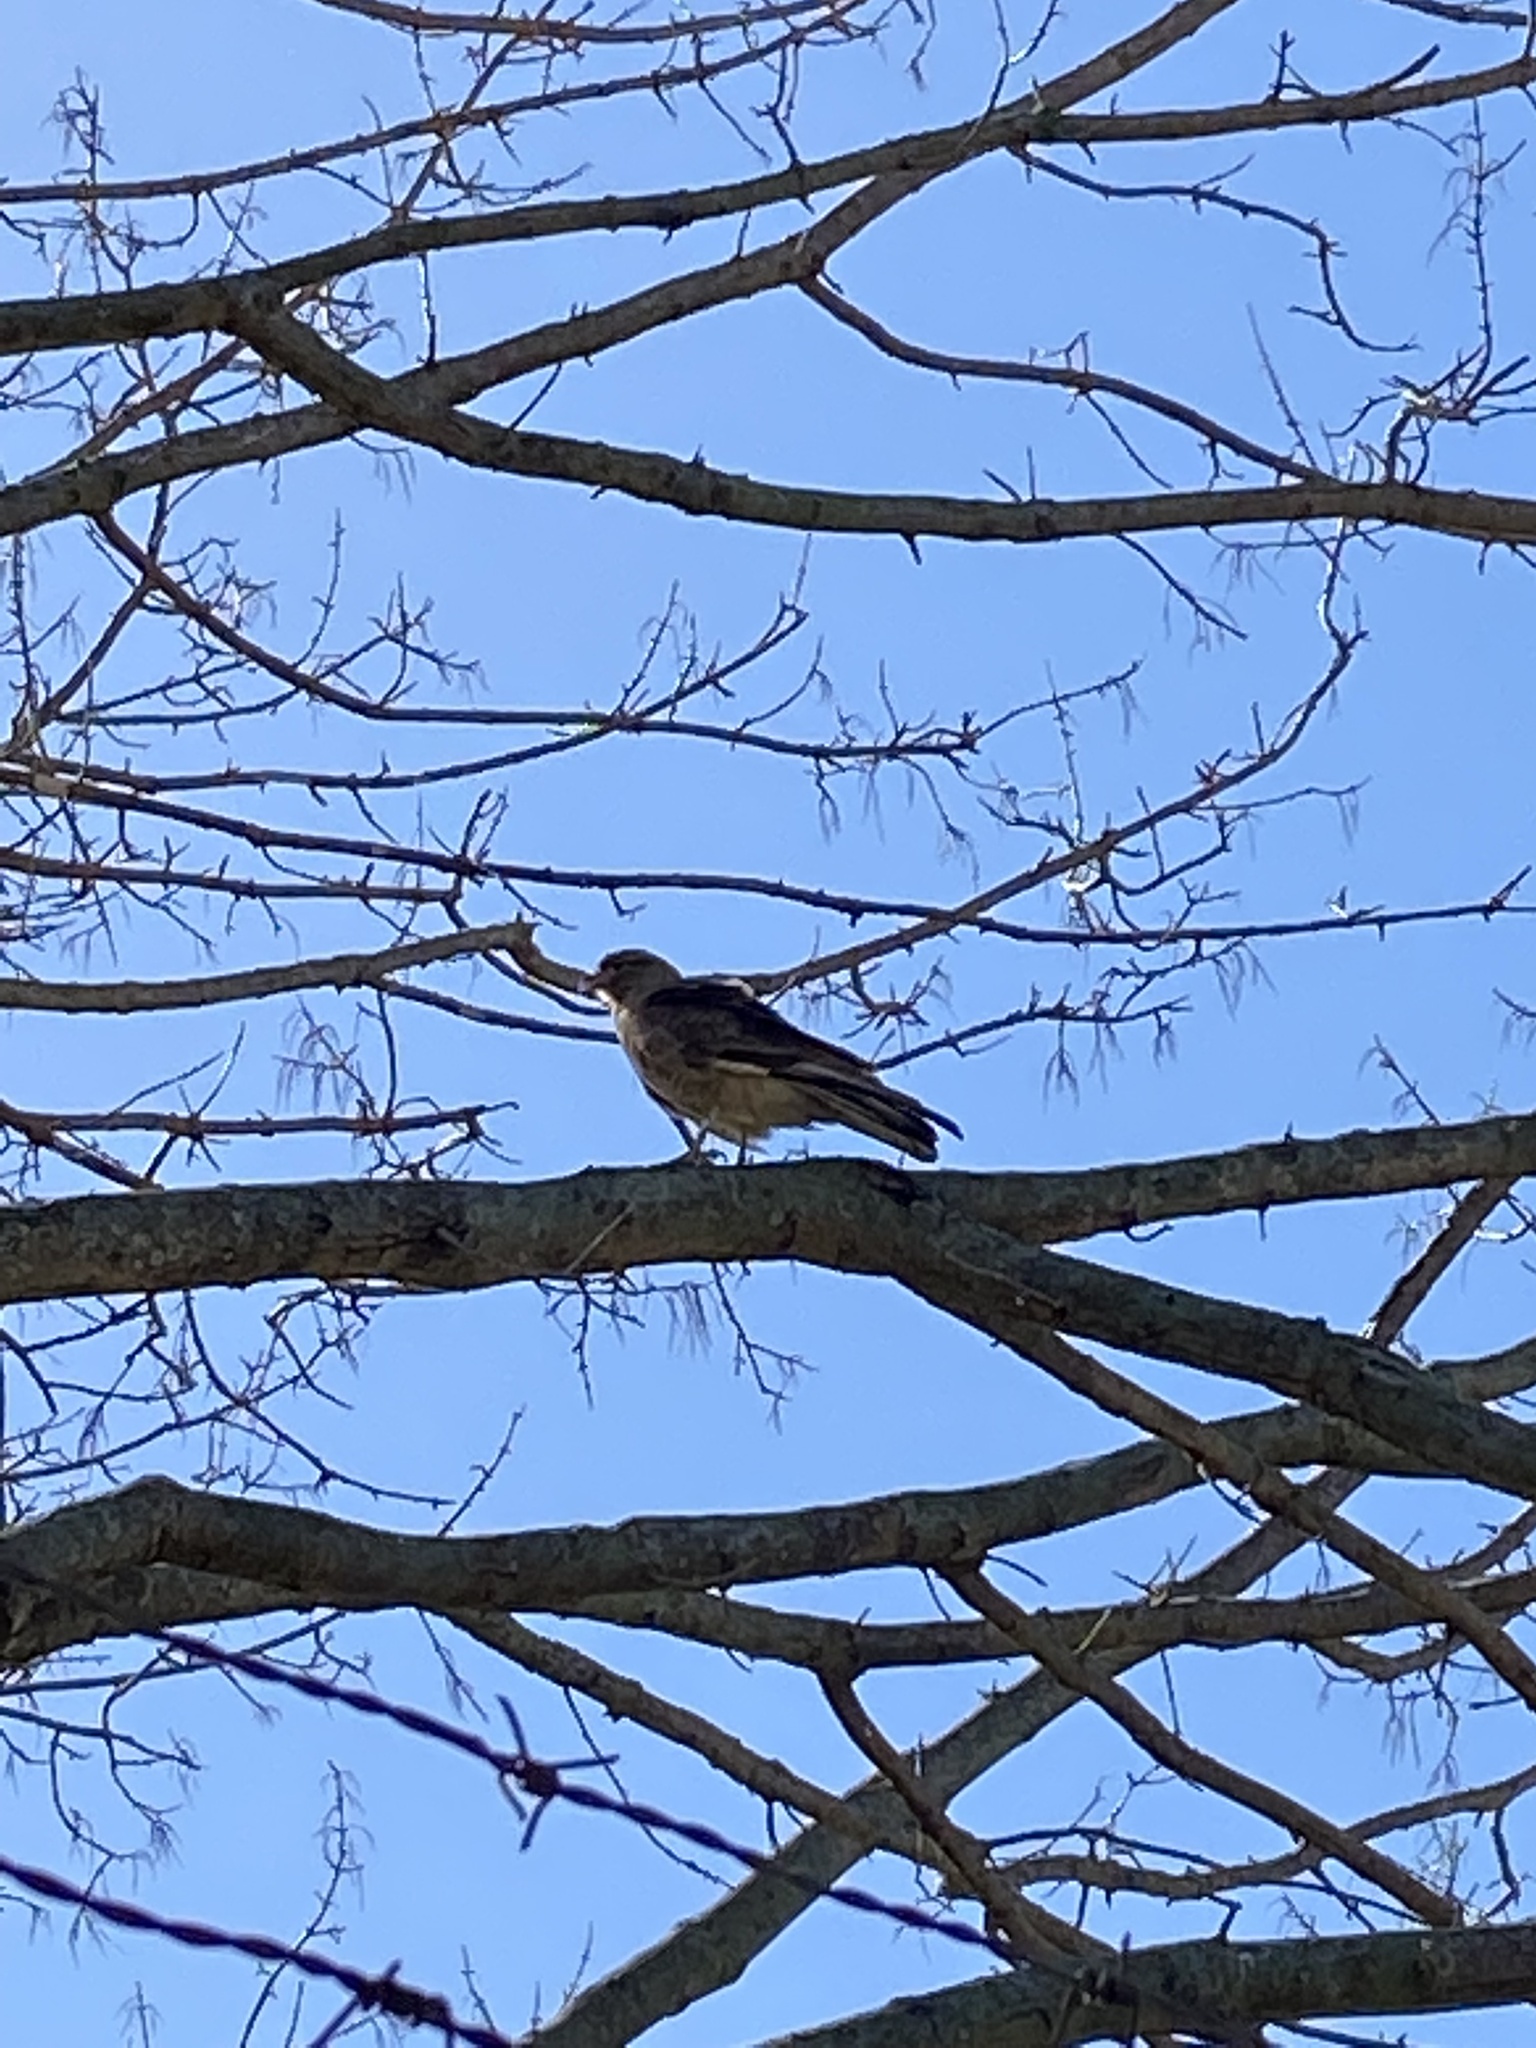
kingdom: Animalia
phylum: Chordata
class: Aves
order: Falconiformes
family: Falconidae
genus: Daptrius
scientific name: Daptrius
